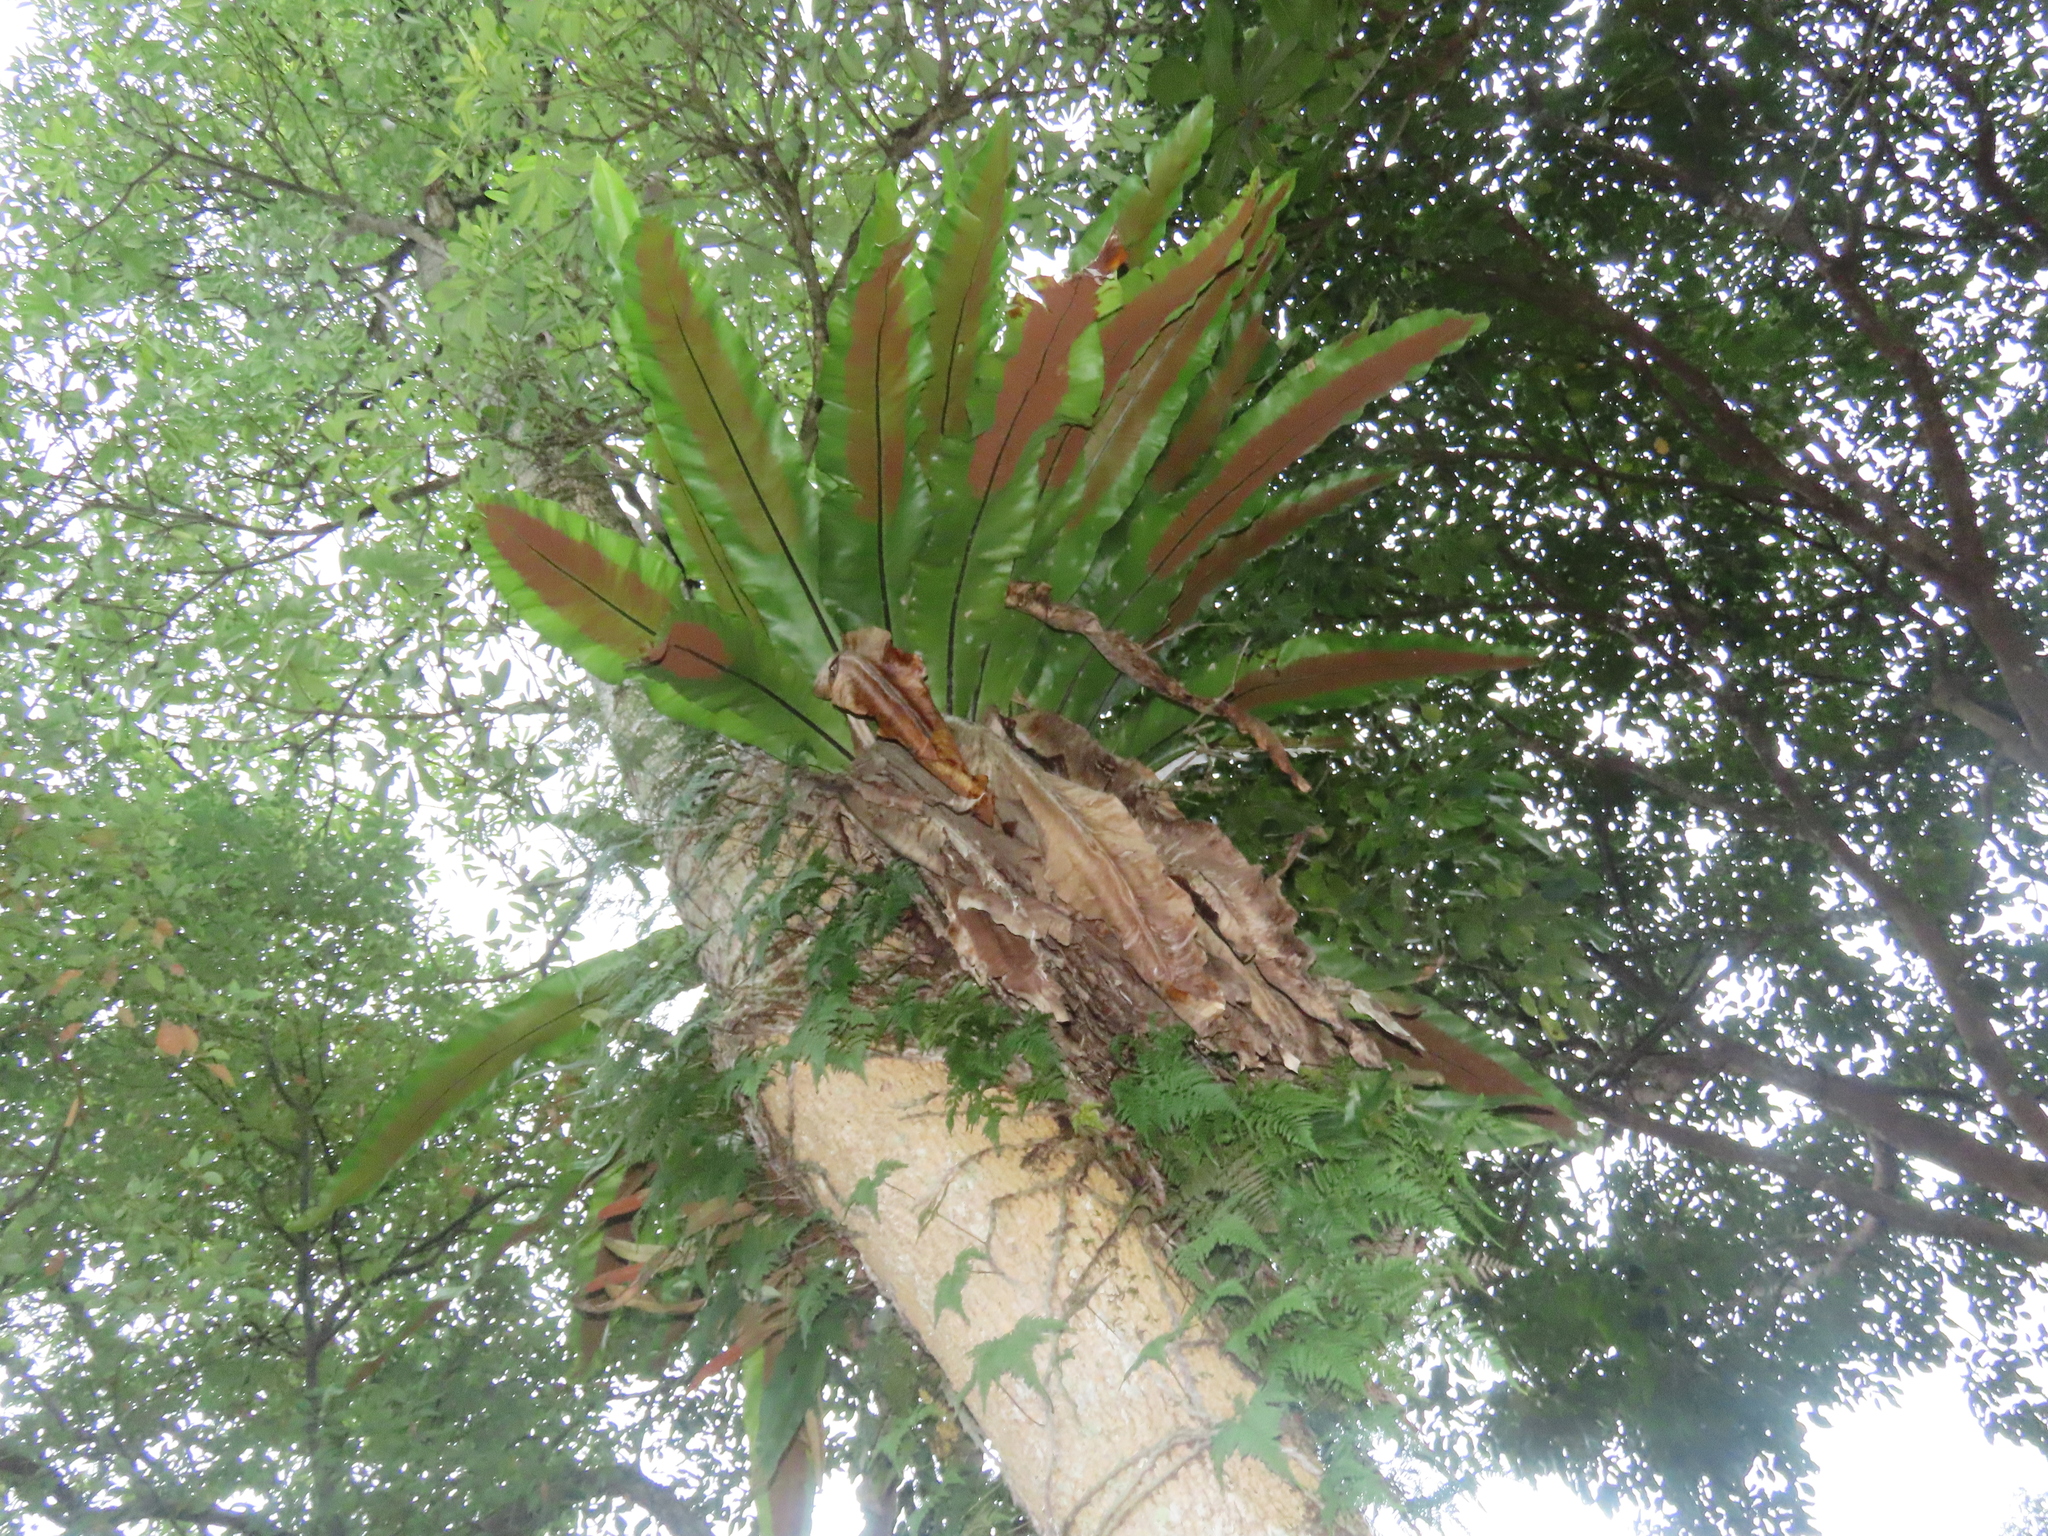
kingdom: Plantae
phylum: Tracheophyta
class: Polypodiopsida
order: Polypodiales
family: Aspleniaceae
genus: Asplenium
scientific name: Asplenium setoi
